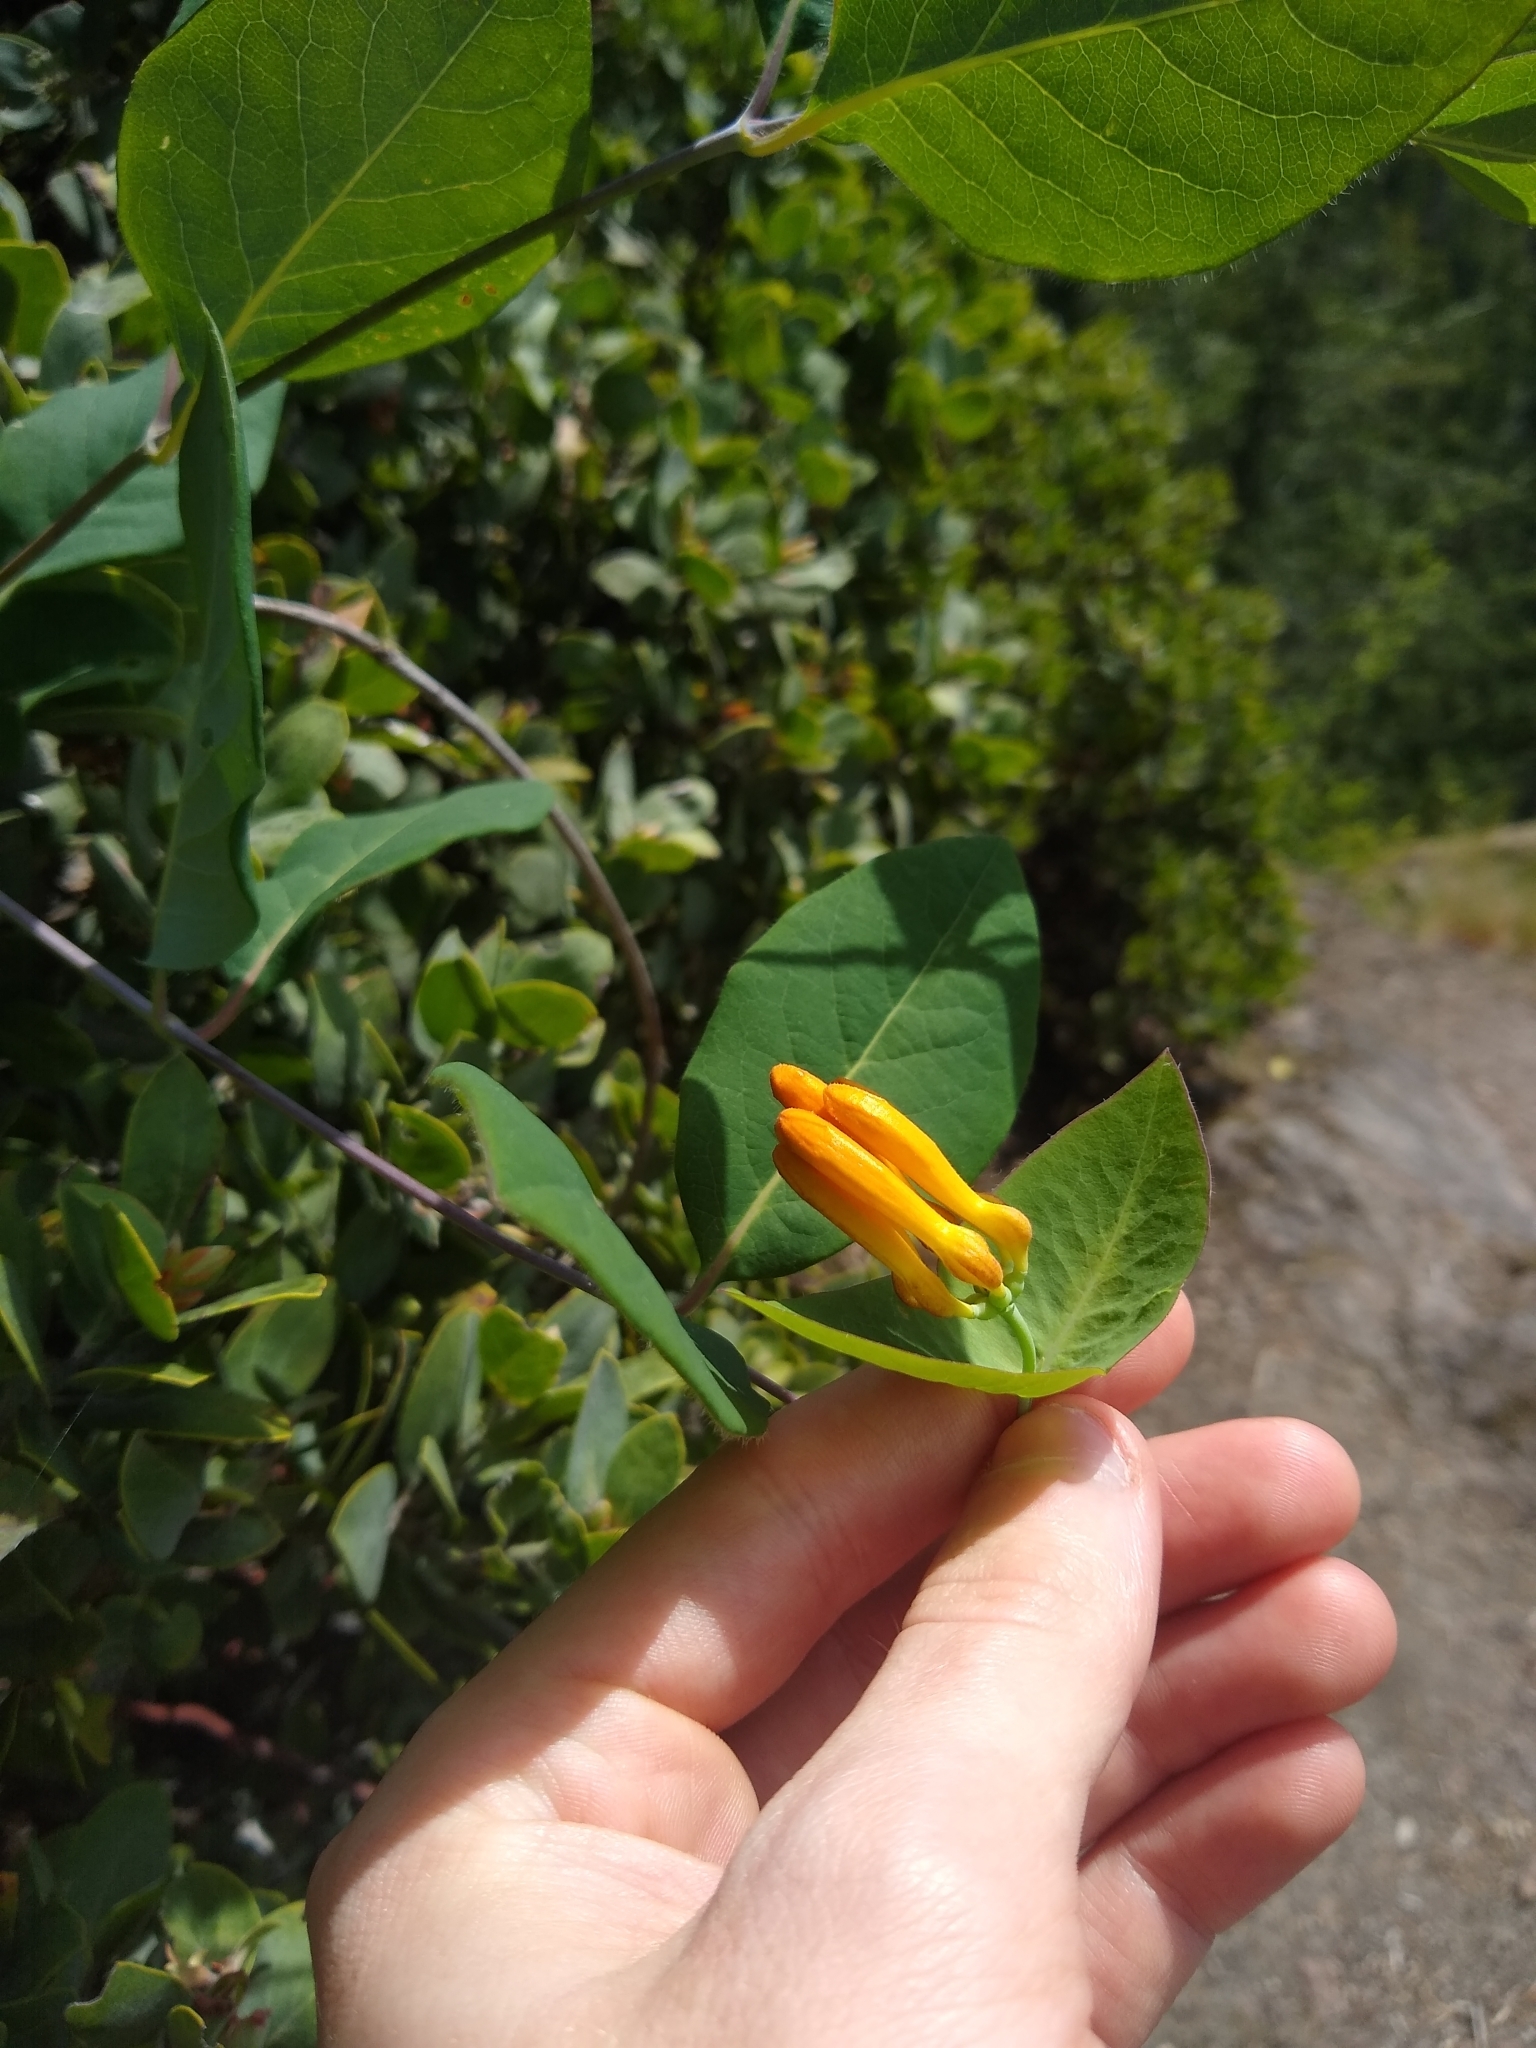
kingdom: Plantae
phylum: Tracheophyta
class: Magnoliopsida
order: Dipsacales
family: Caprifoliaceae
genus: Lonicera
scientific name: Lonicera ciliosa
